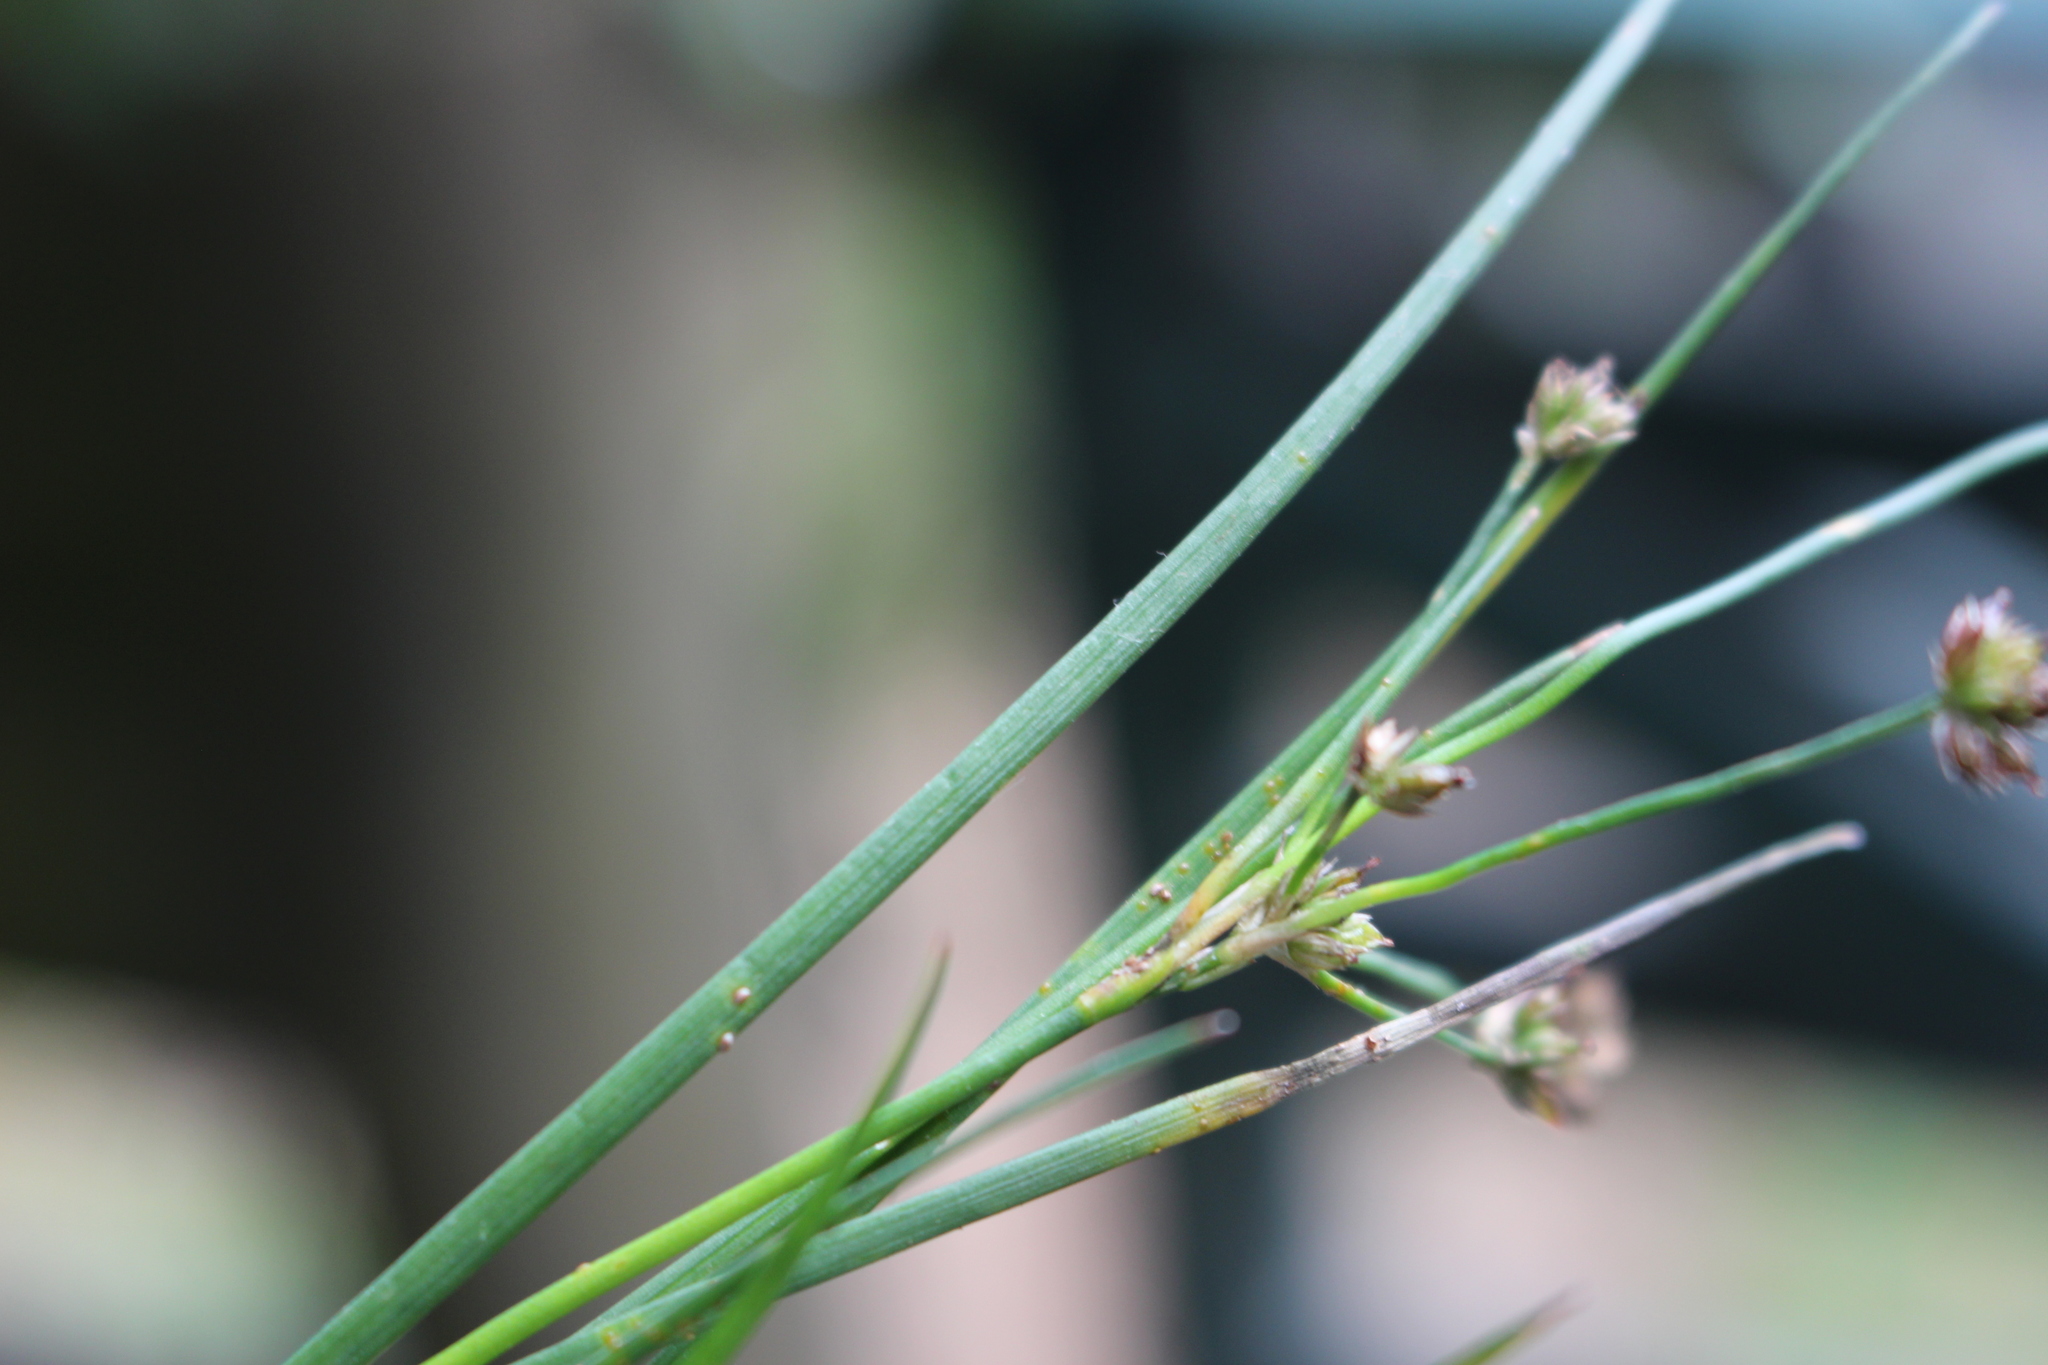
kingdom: Plantae
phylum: Tracheophyta
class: Liliopsida
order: Poales
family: Juncaceae
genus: Juncus
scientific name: Juncus articulatus
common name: Jointed rush
